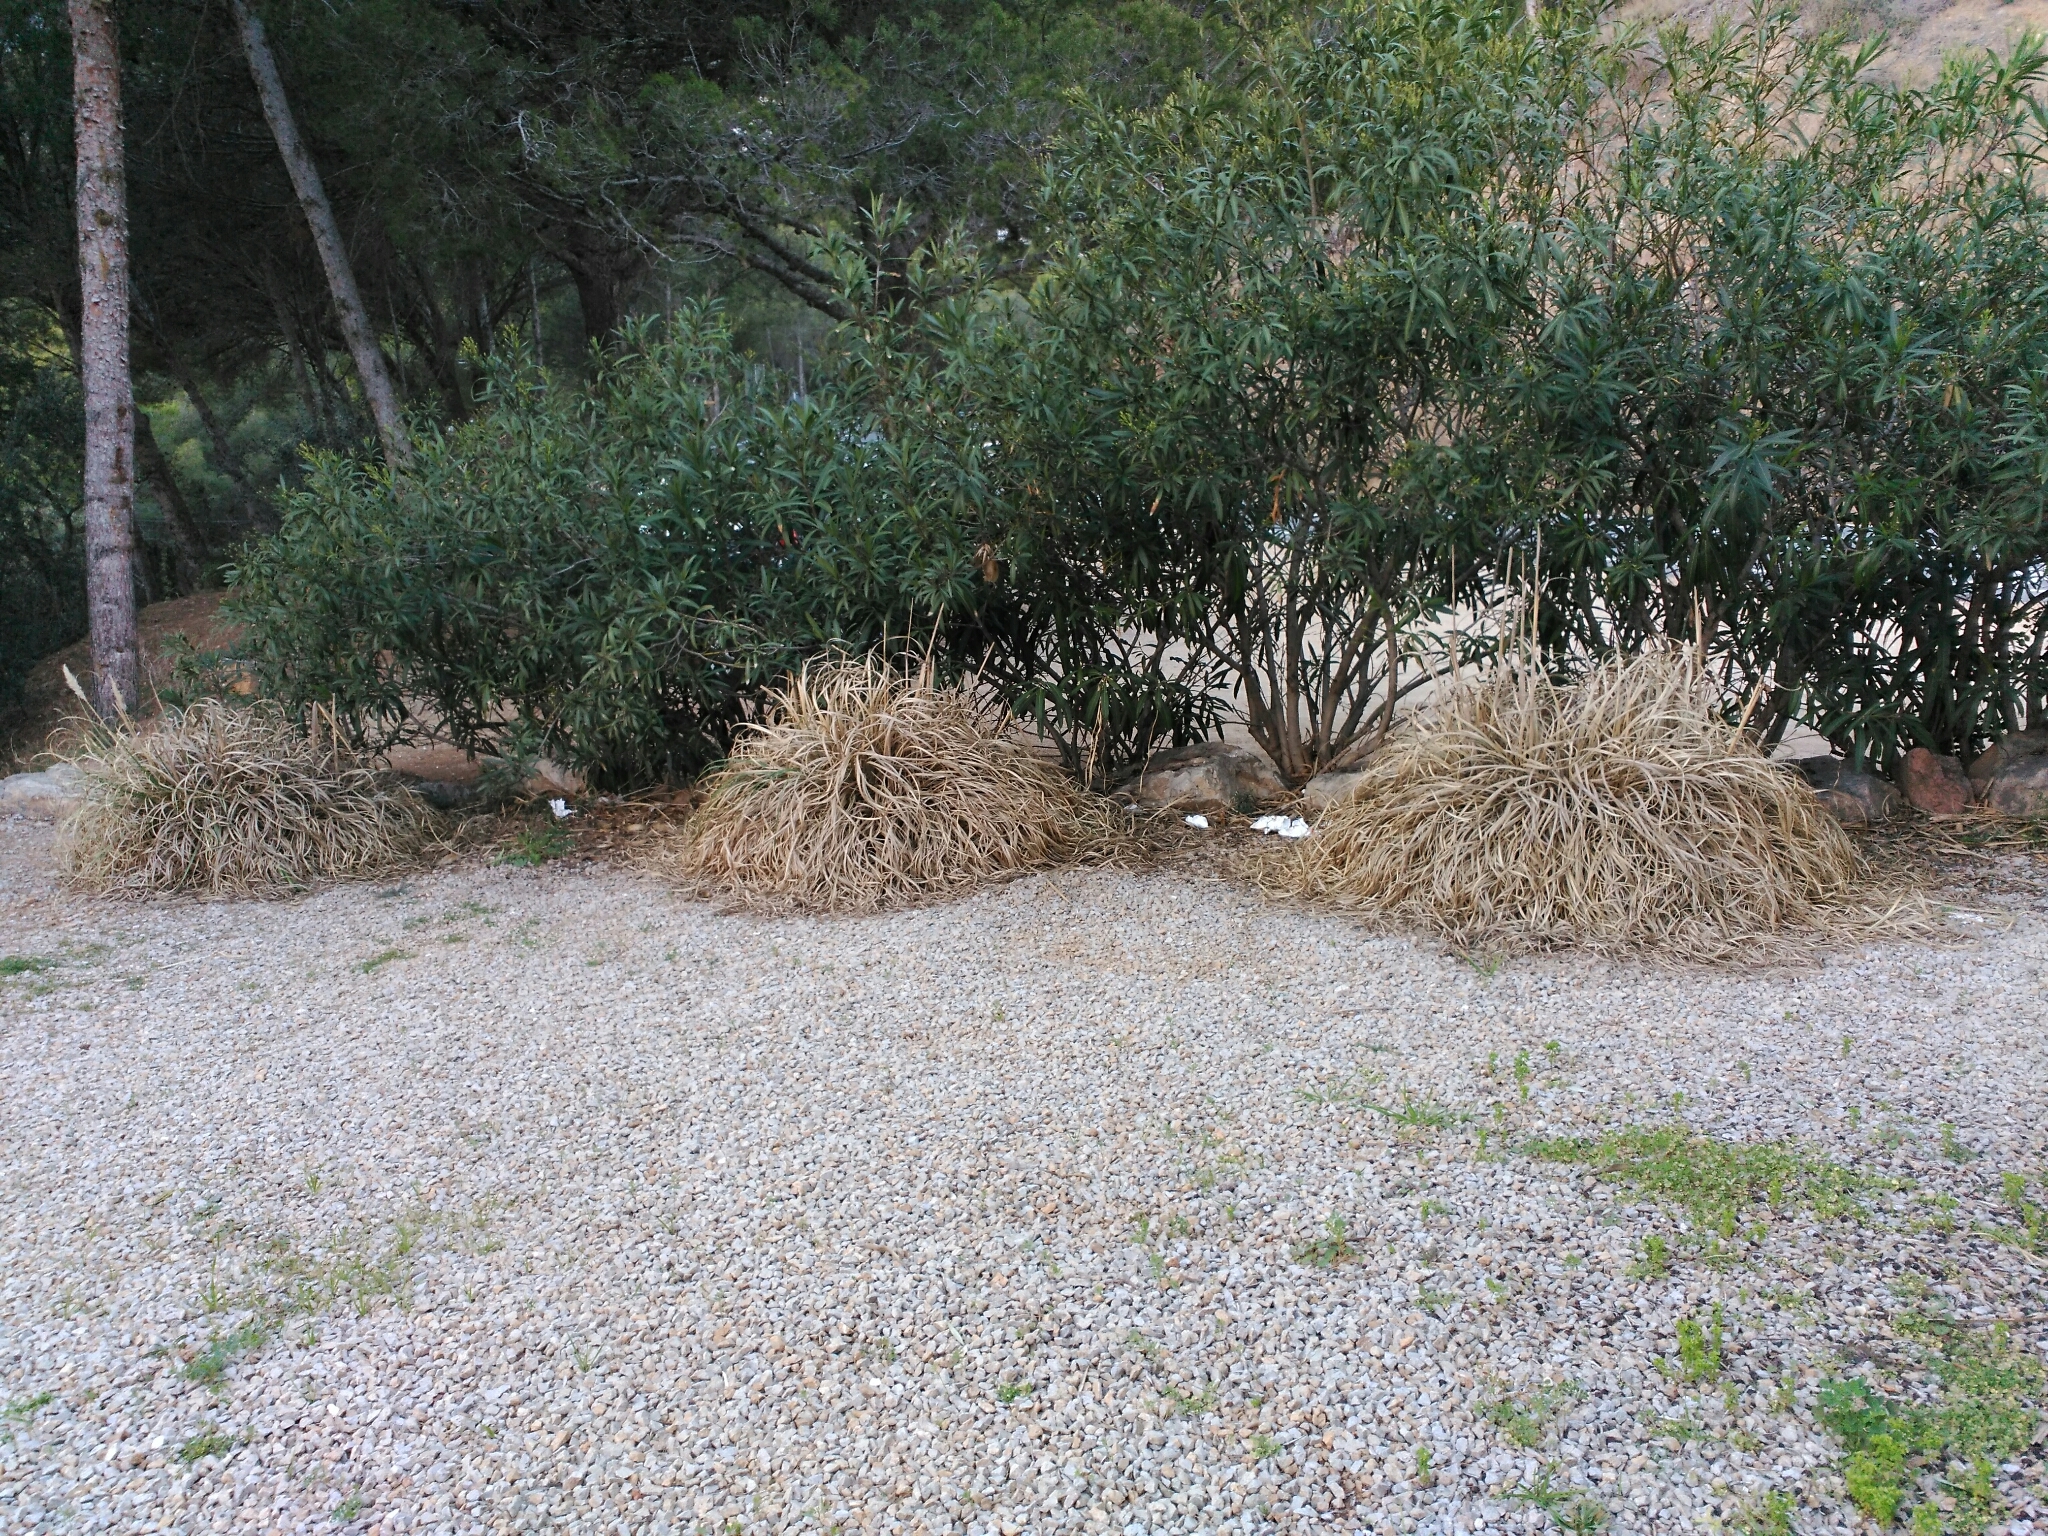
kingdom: Plantae
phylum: Tracheophyta
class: Liliopsida
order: Poales
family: Poaceae
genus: Cortaderia
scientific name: Cortaderia selloana
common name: Uruguayan pampas grass
